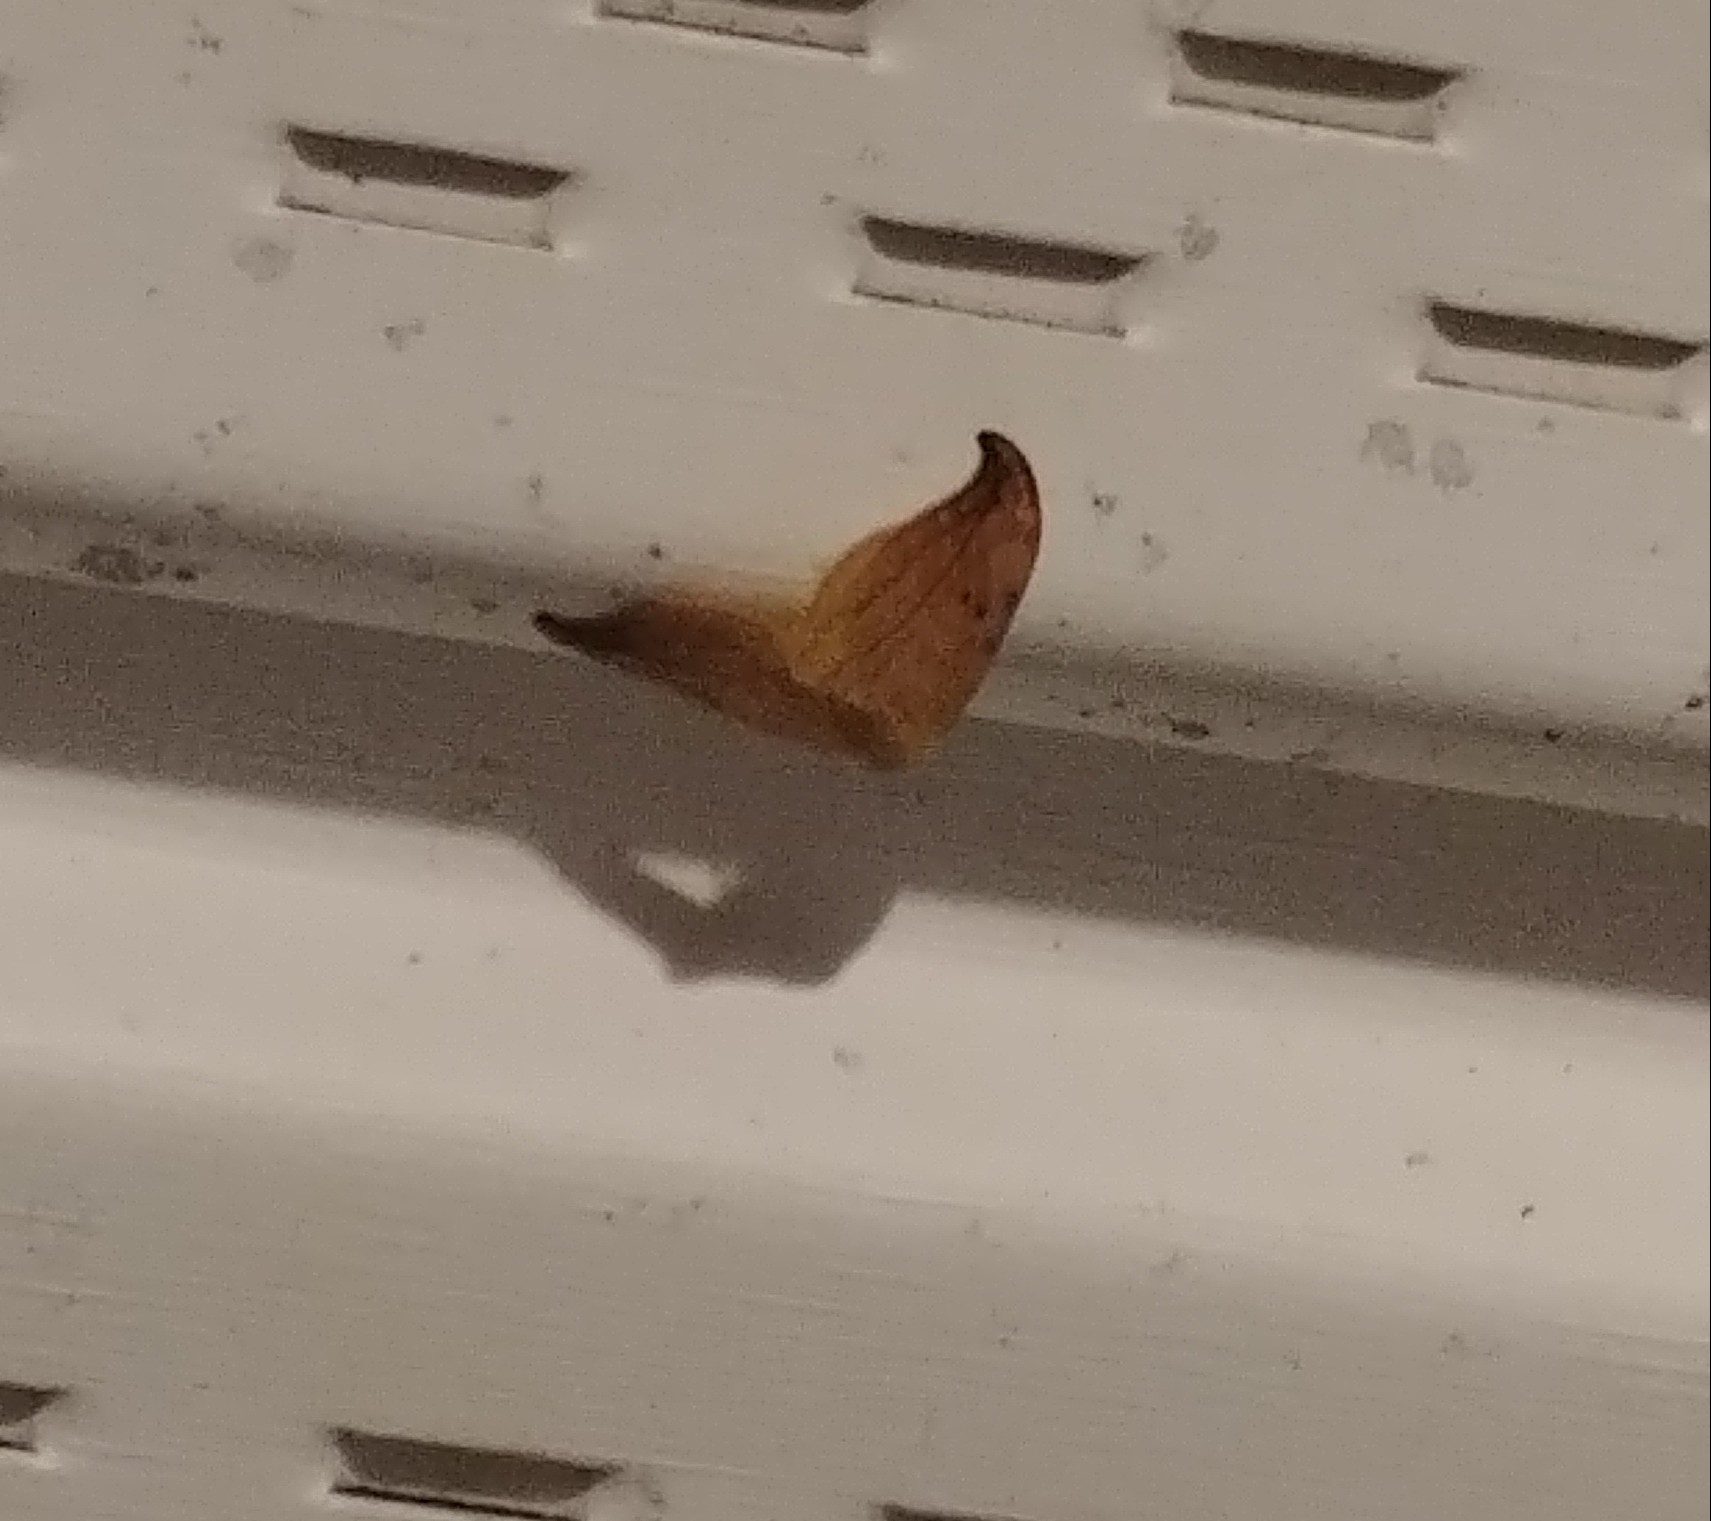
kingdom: Animalia
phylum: Arthropoda
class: Insecta
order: Lepidoptera
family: Drepanidae
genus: Drepana
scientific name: Drepana arcuata
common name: Arched hooktip moth
